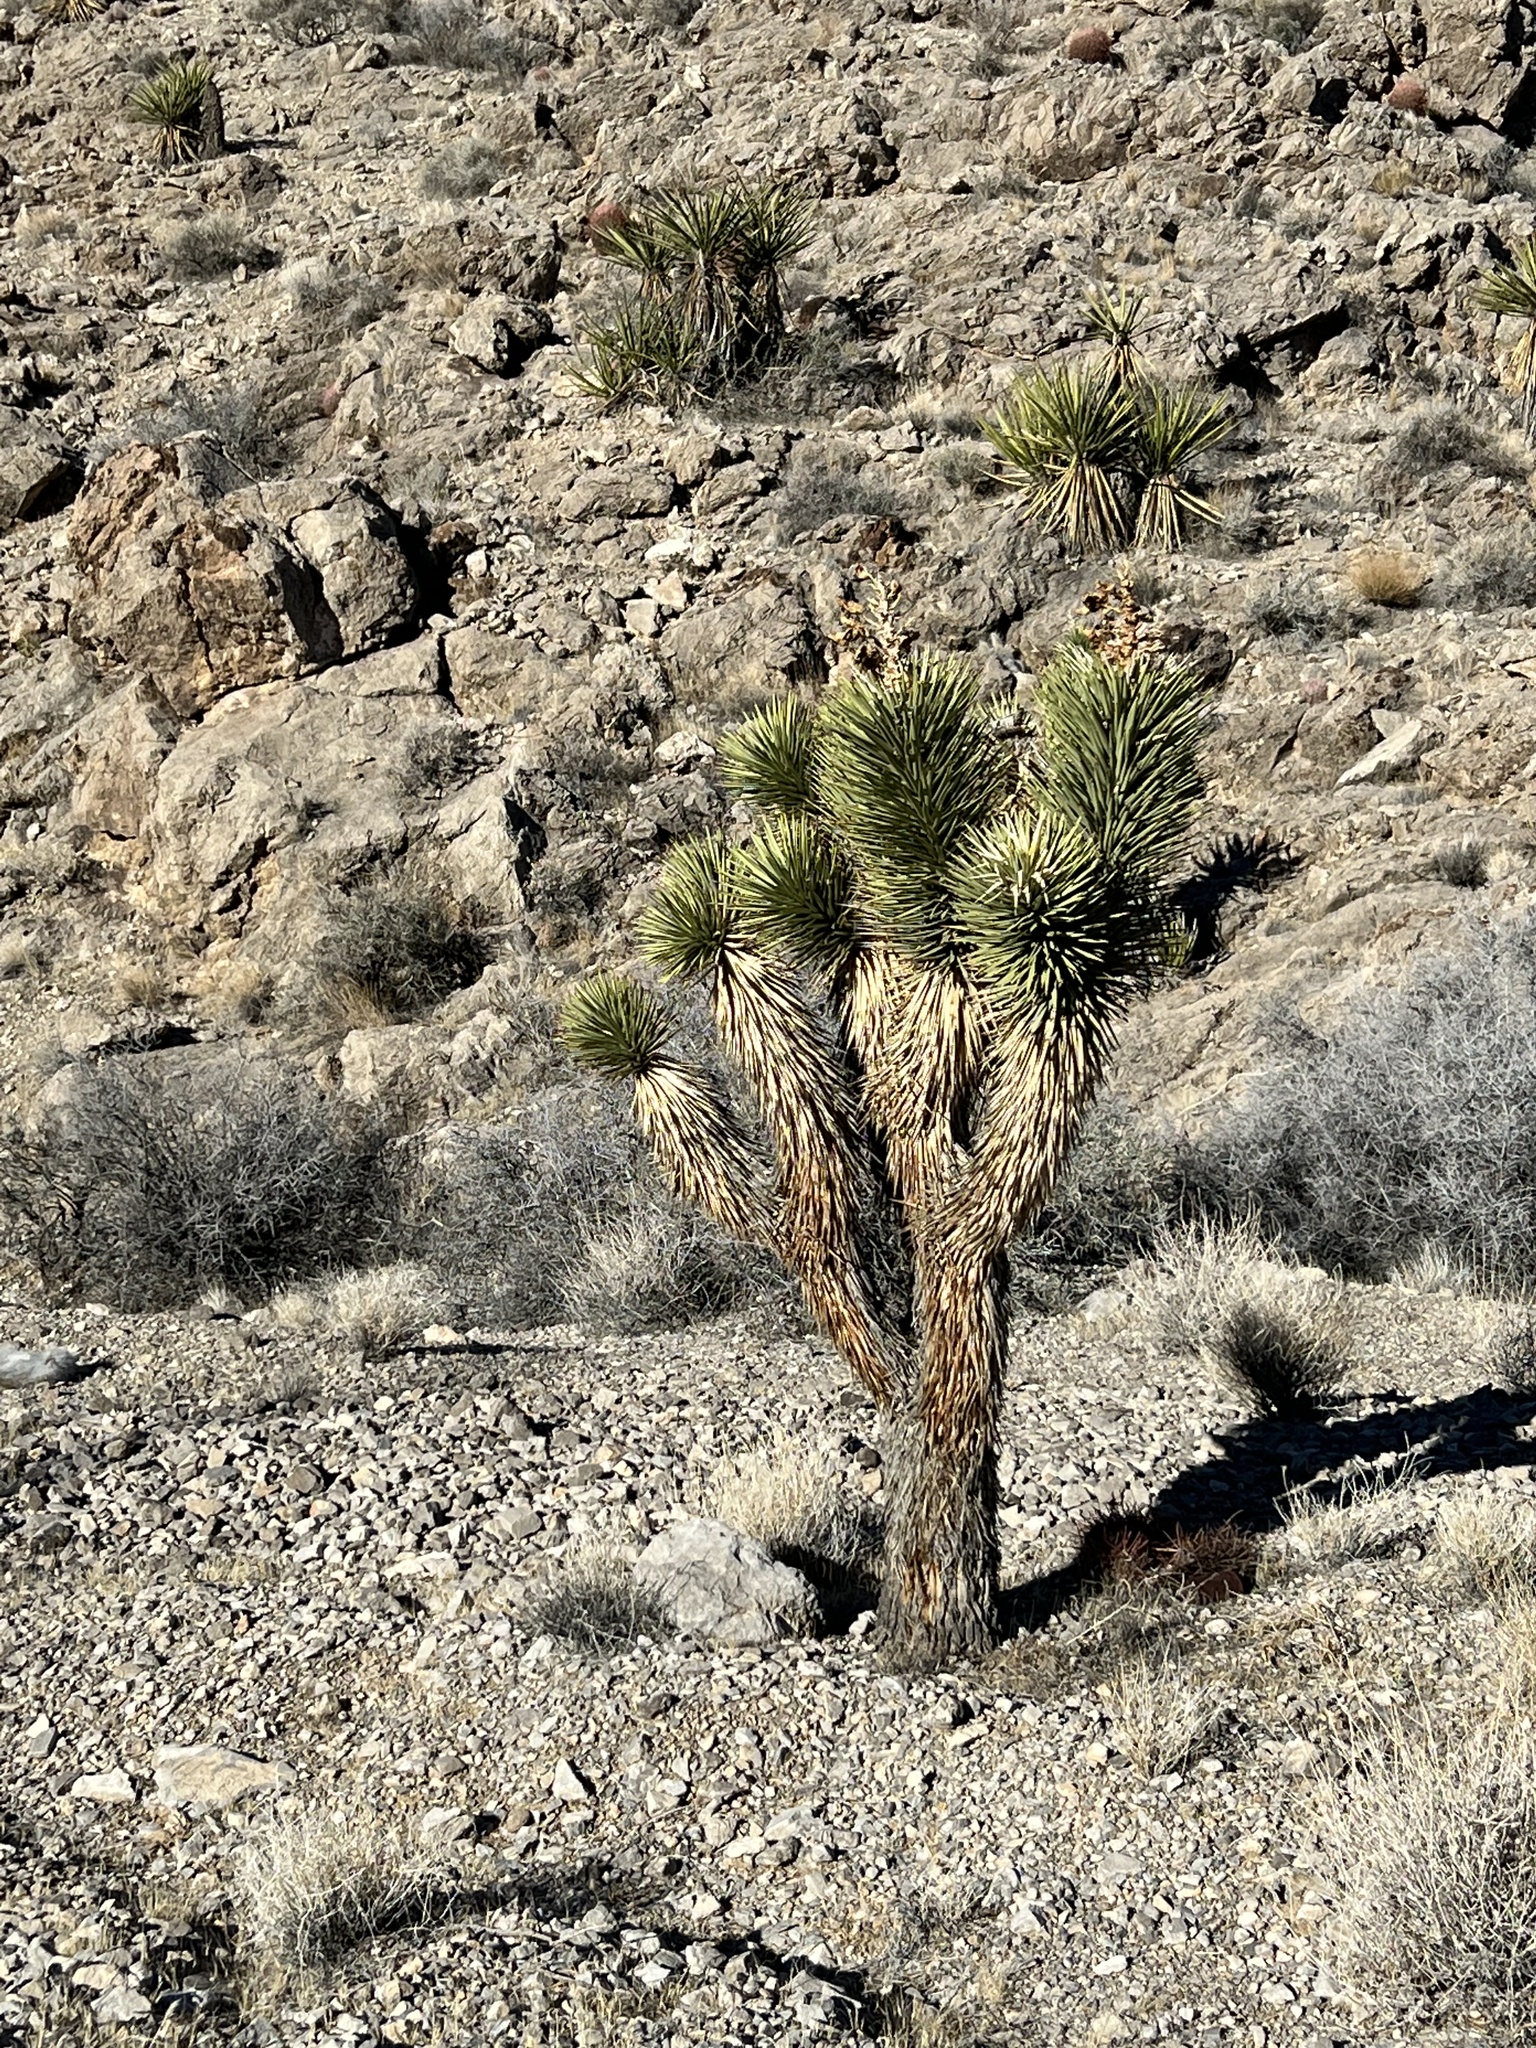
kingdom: Plantae
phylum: Tracheophyta
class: Liliopsida
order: Asparagales
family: Asparagaceae
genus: Yucca
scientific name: Yucca brevifolia
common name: Joshua tree
